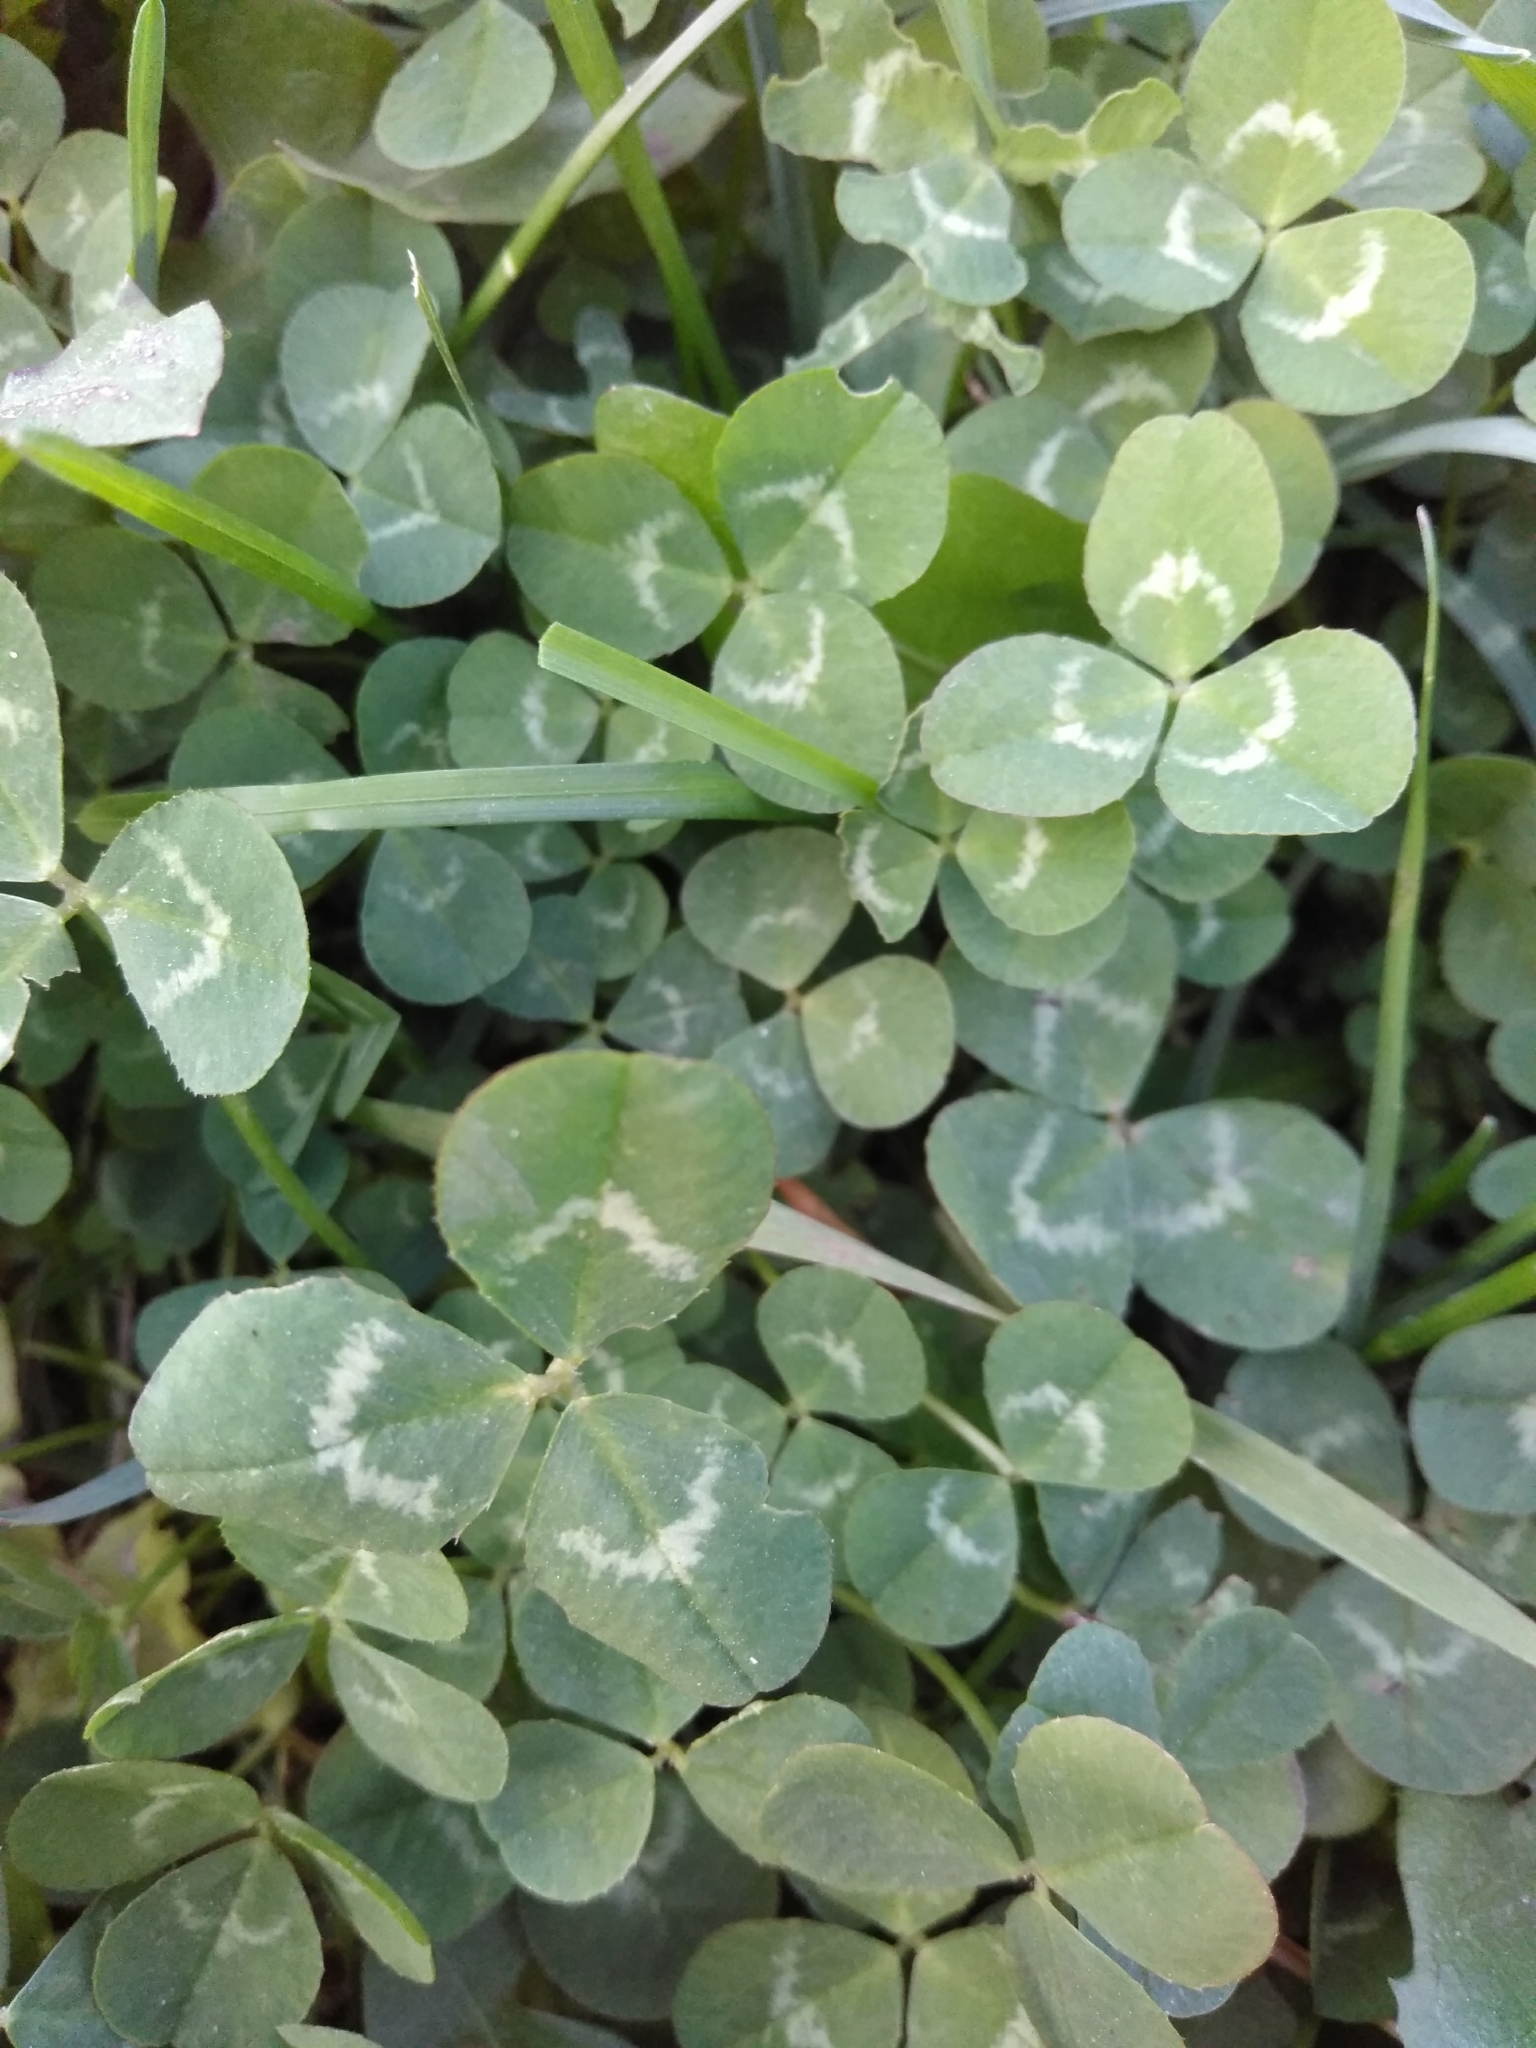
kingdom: Plantae
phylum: Tracheophyta
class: Magnoliopsida
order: Fabales
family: Fabaceae
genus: Trifolium
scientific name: Trifolium repens
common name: White clover
